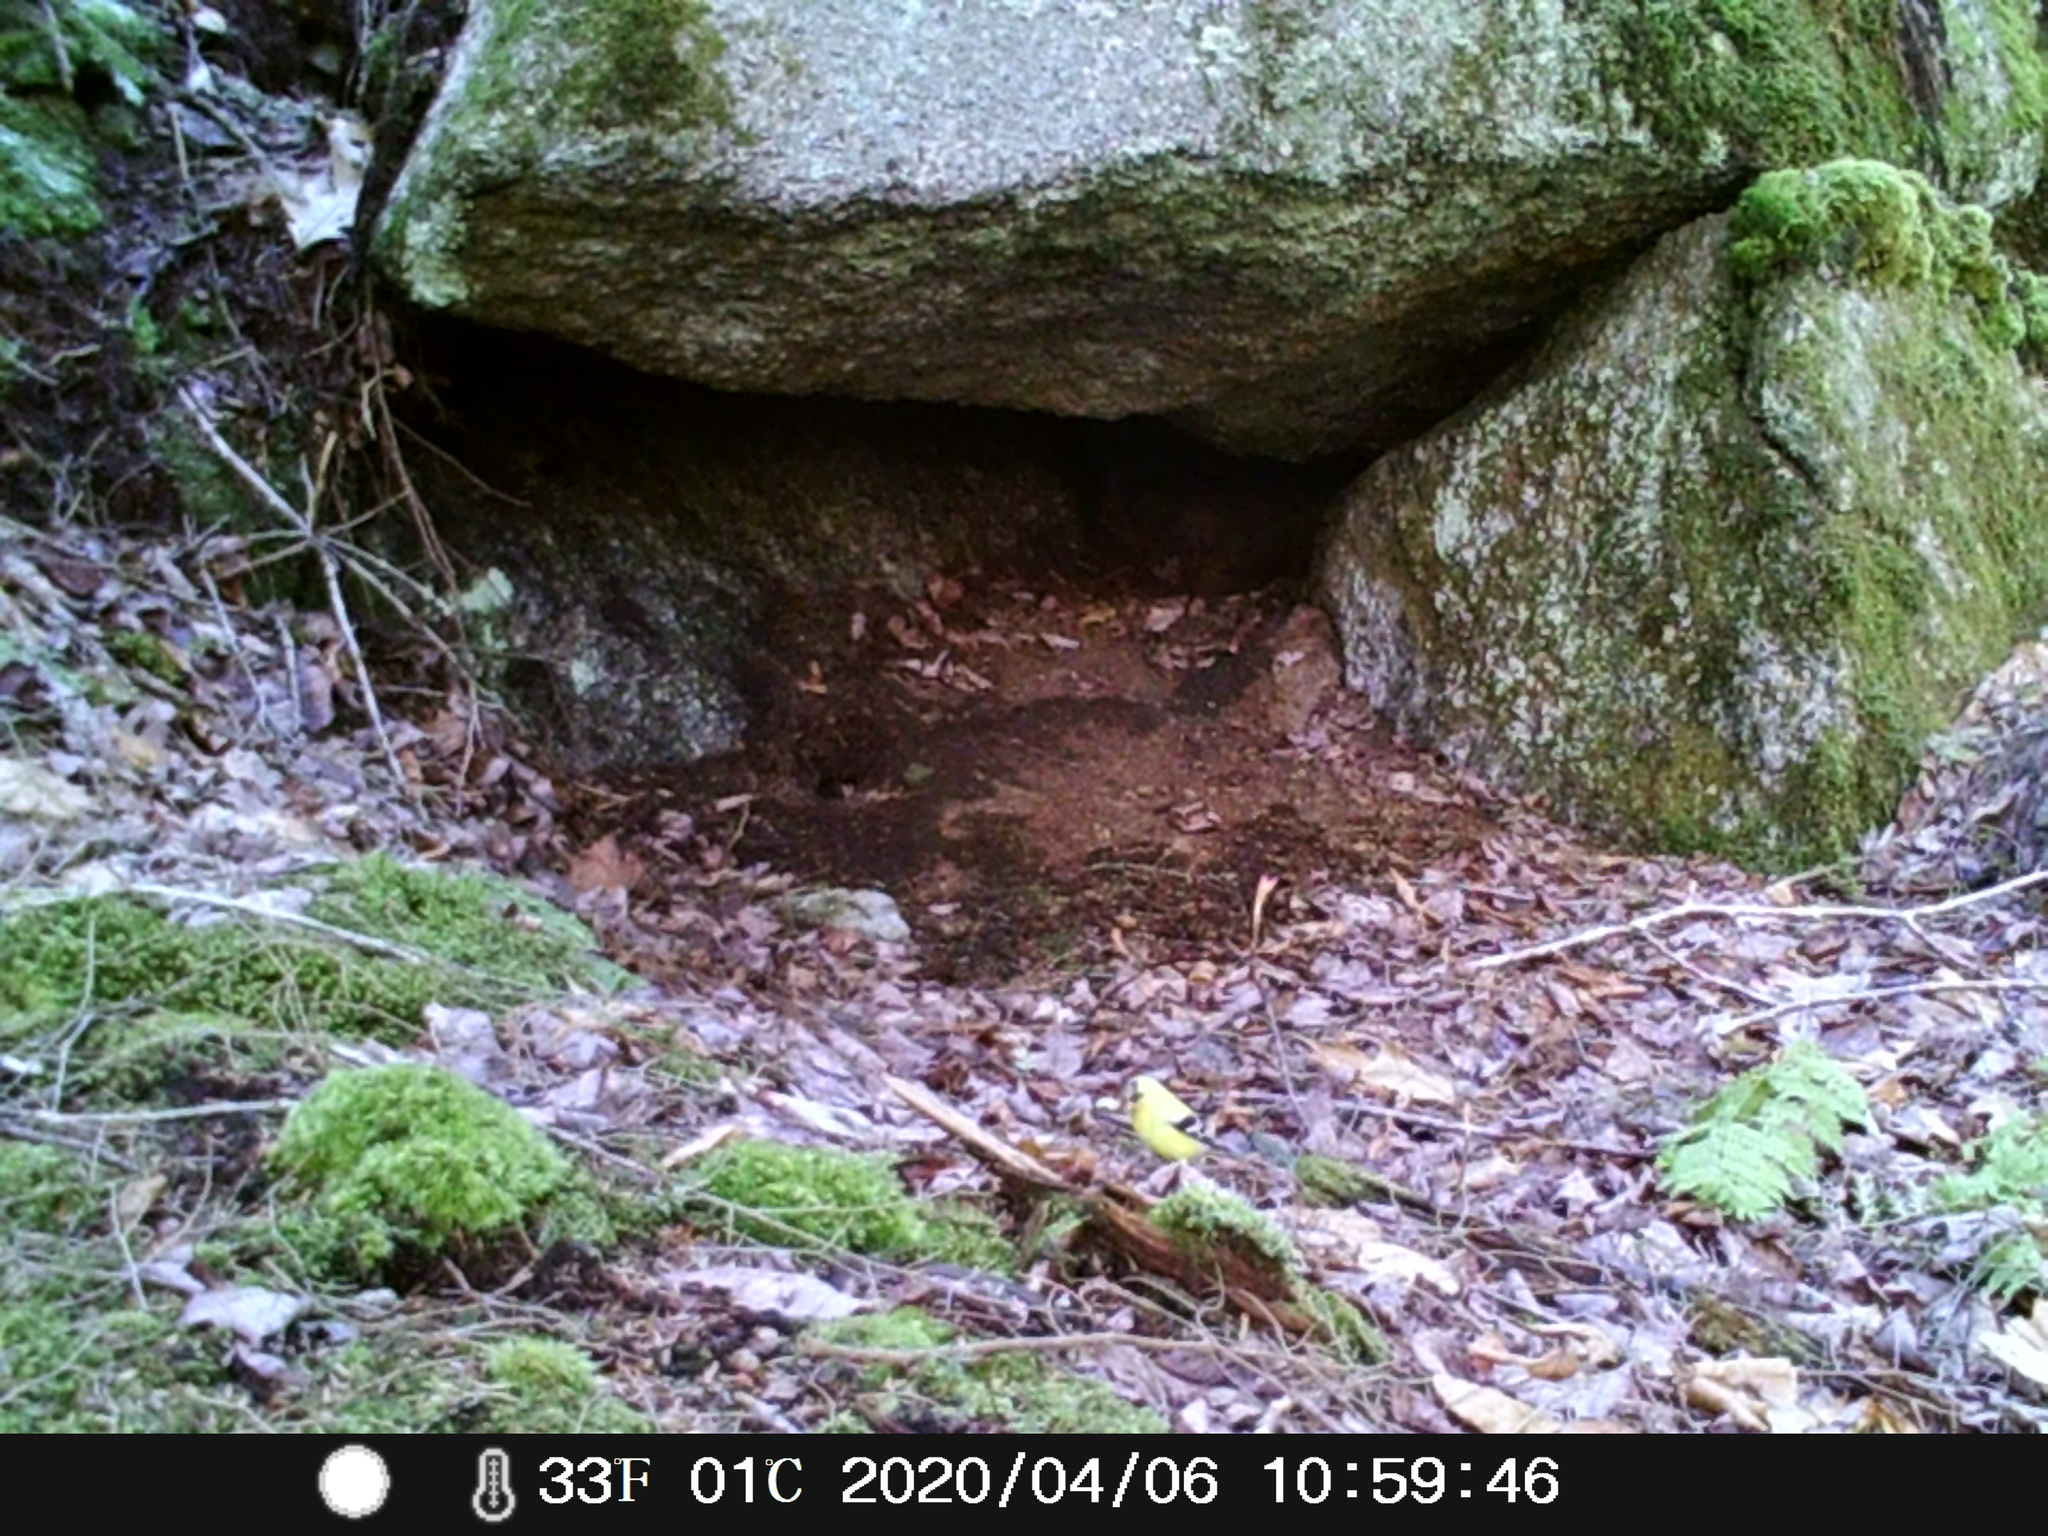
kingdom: Animalia
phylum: Chordata
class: Aves
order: Passeriformes
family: Fringillidae
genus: Spinus
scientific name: Spinus tristis
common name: American goldfinch
